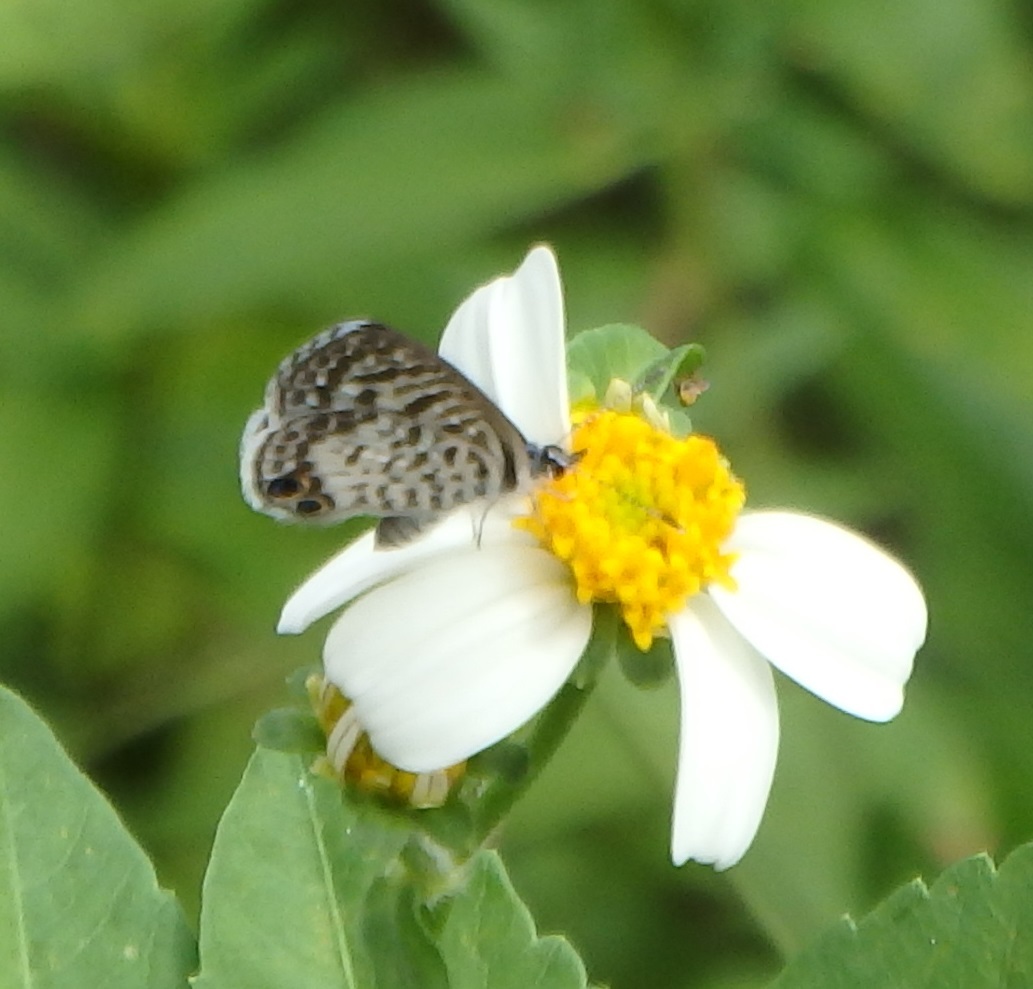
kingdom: Animalia
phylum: Arthropoda
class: Insecta
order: Lepidoptera
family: Lycaenidae
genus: Leptotes
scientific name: Leptotes cassius
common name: Cassius blue
